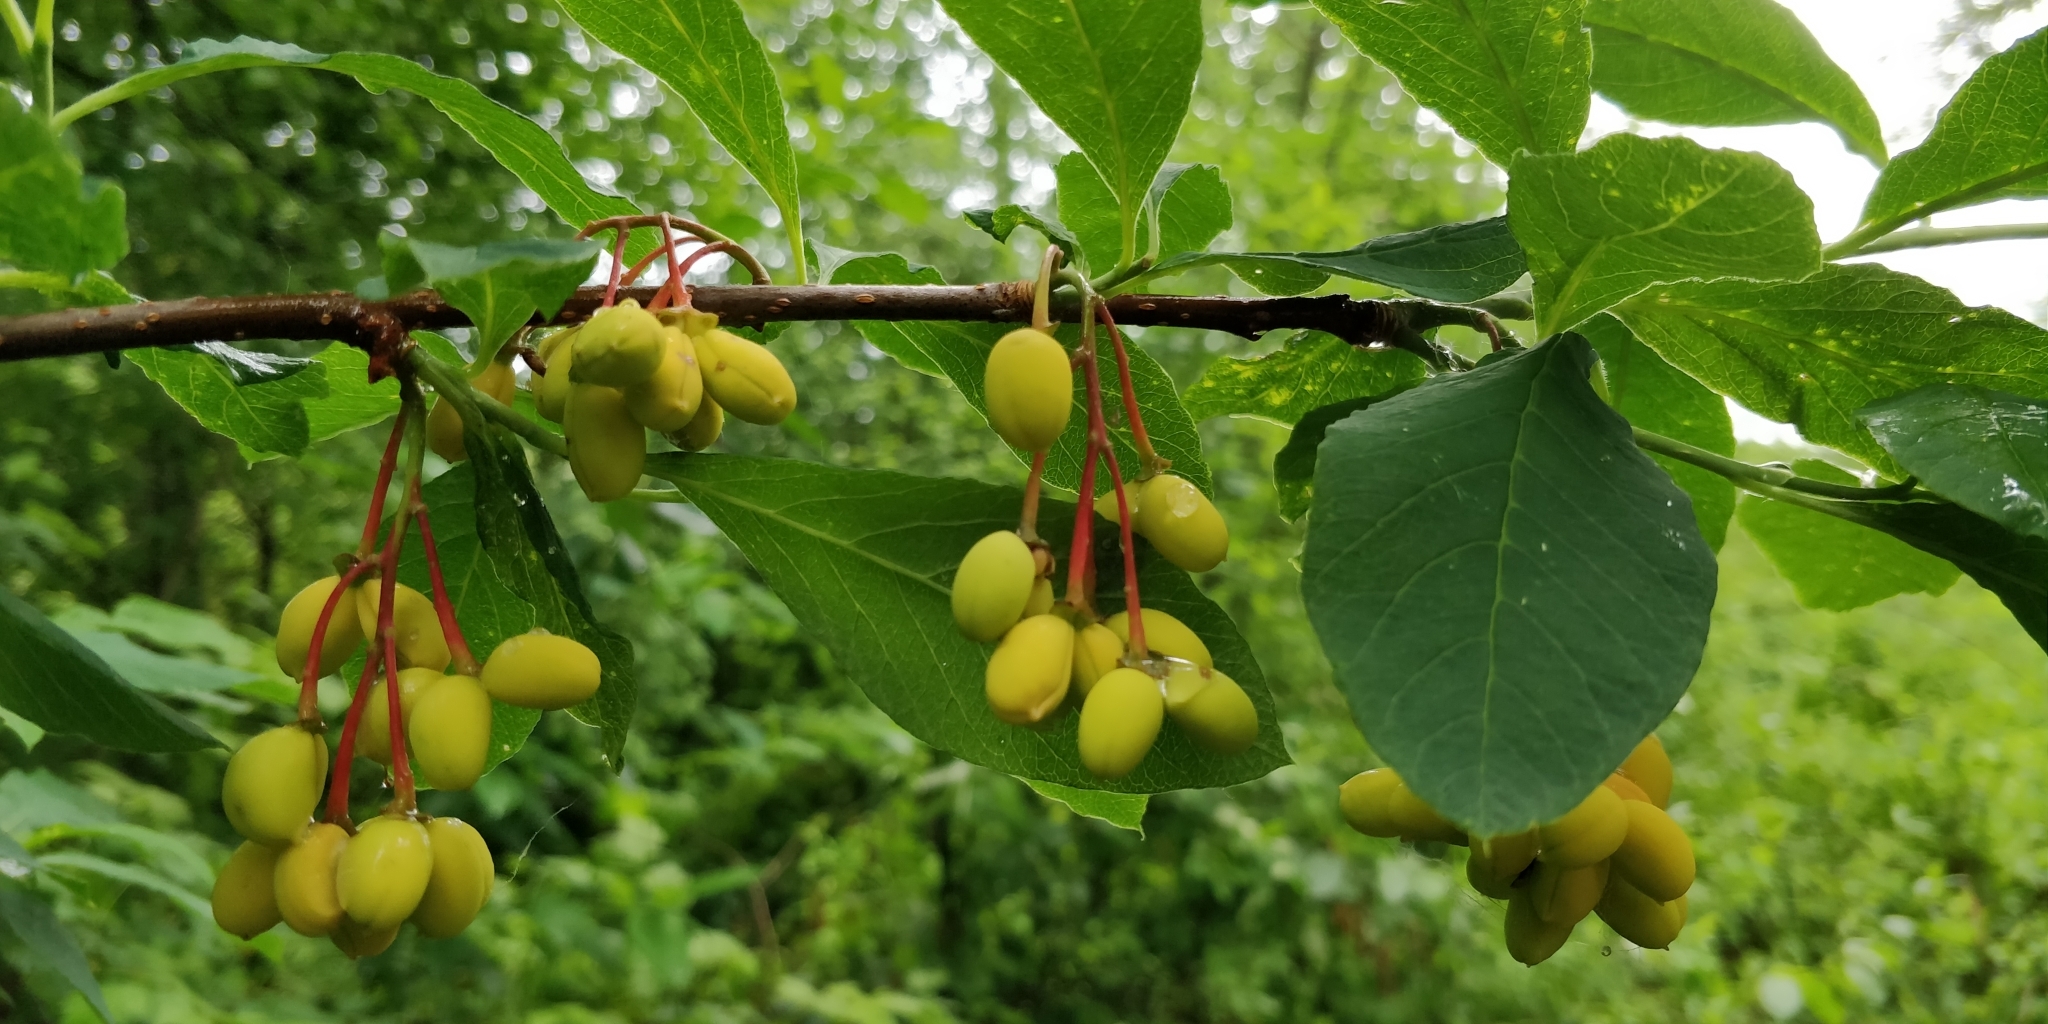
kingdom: Plantae
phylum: Tracheophyta
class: Magnoliopsida
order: Rosales
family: Rosaceae
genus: Oemleria
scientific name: Oemleria cerasiformis
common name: Osoberry
